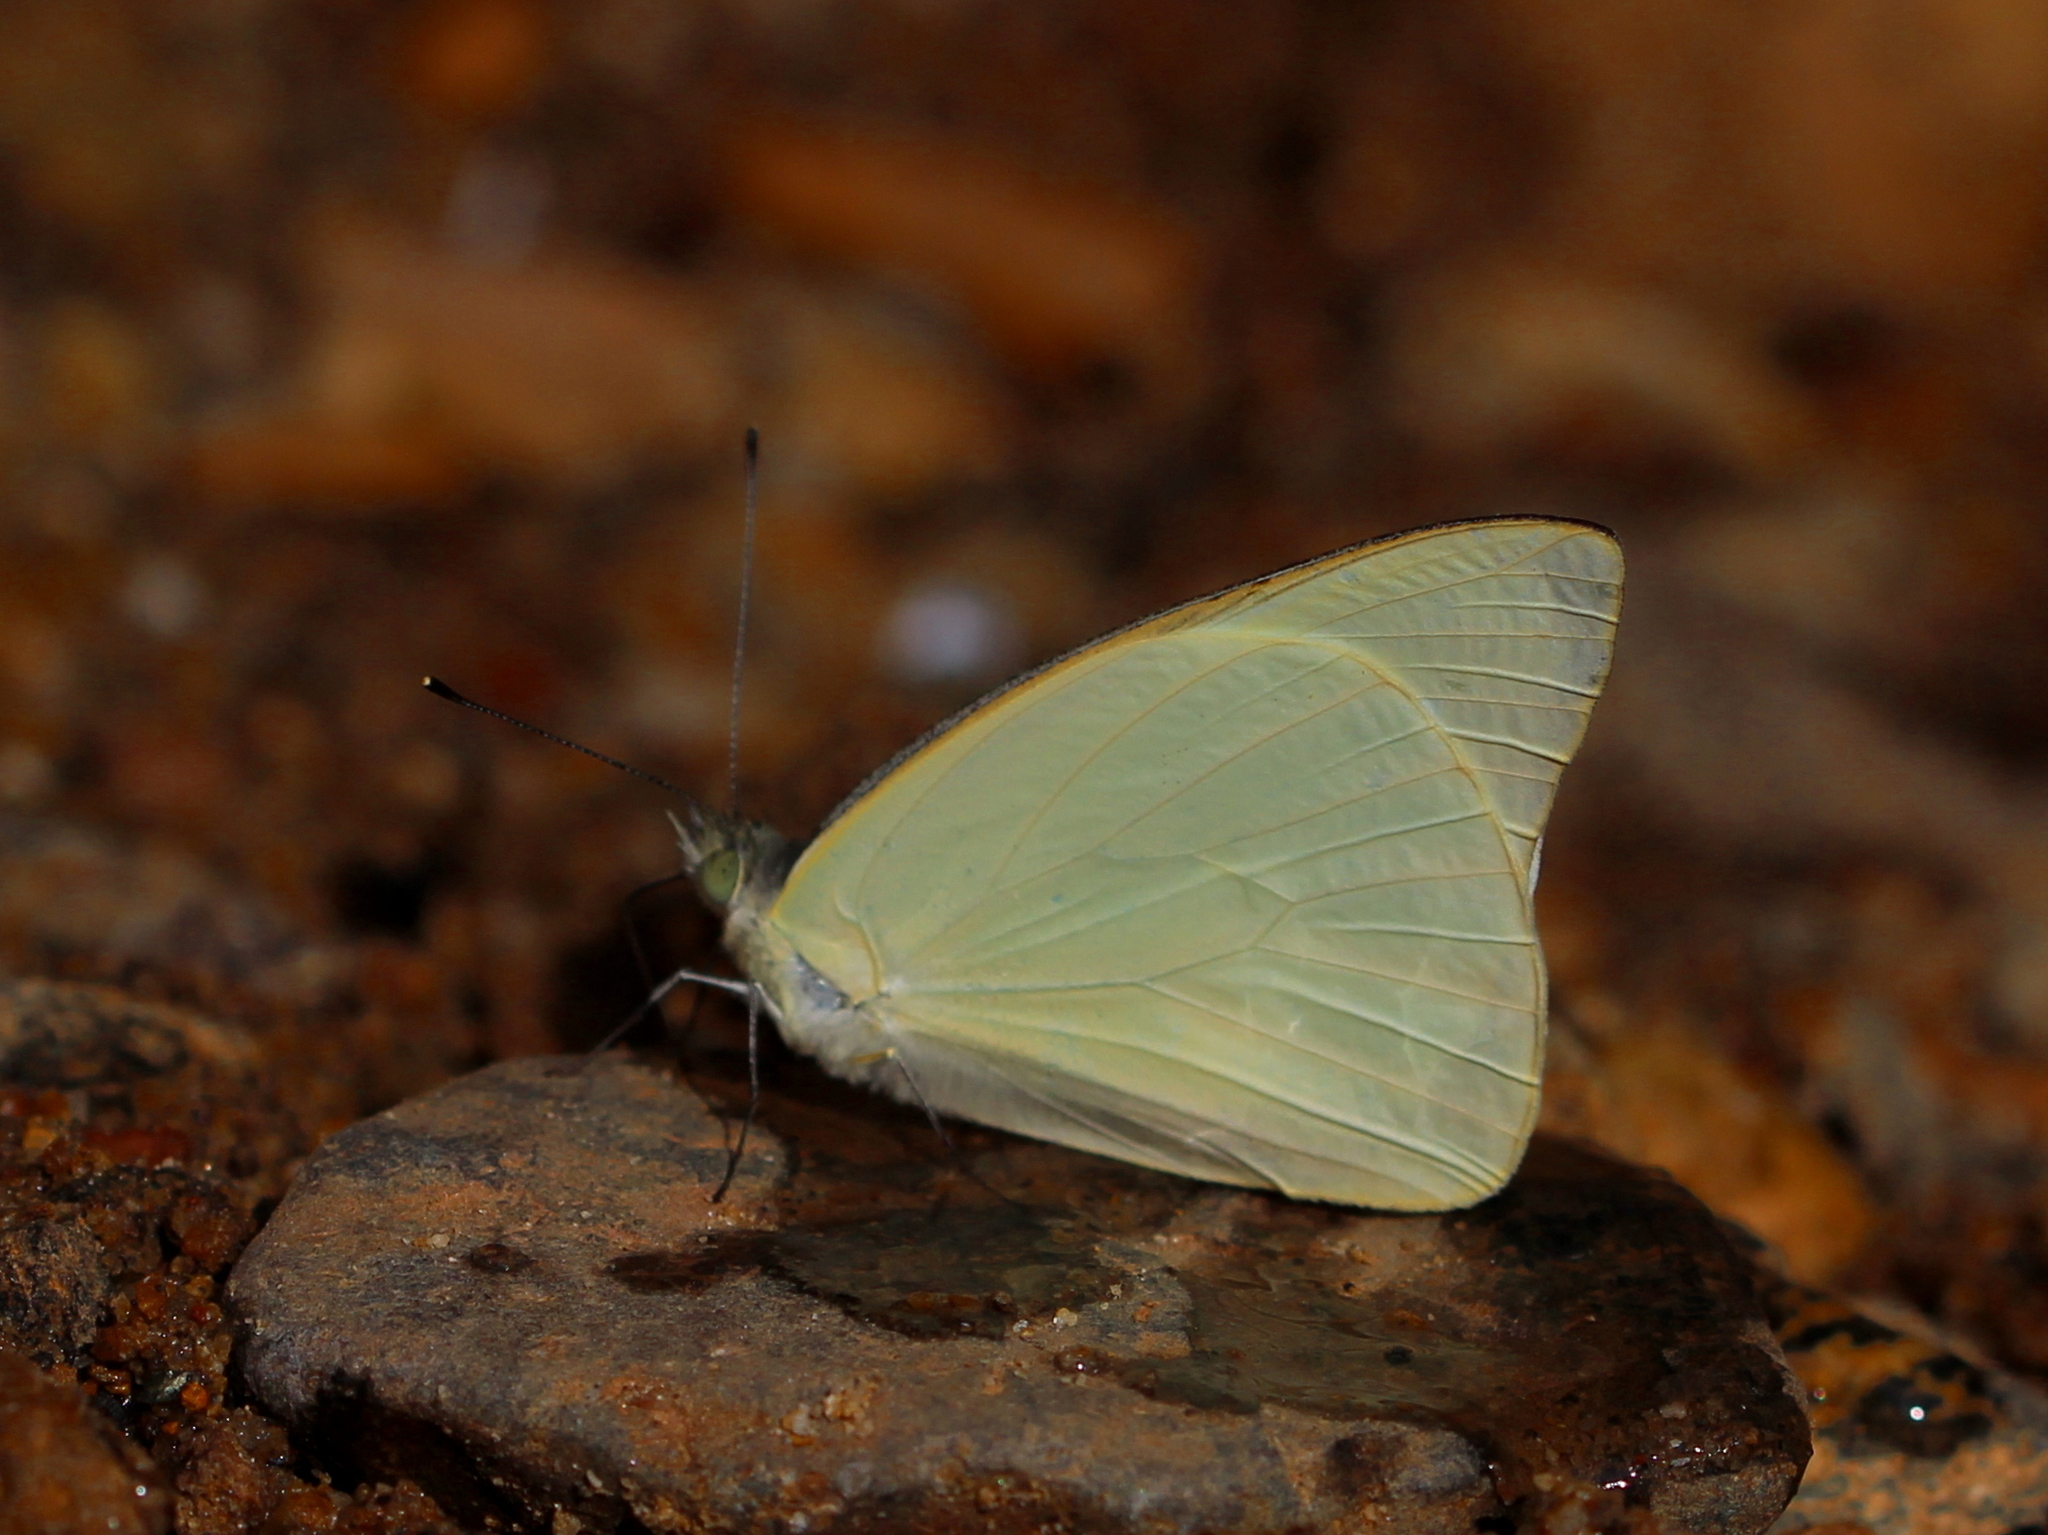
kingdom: Animalia
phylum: Arthropoda
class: Insecta
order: Lepidoptera
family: Pieridae
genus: Appias
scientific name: Appias albina
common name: Common albatross
